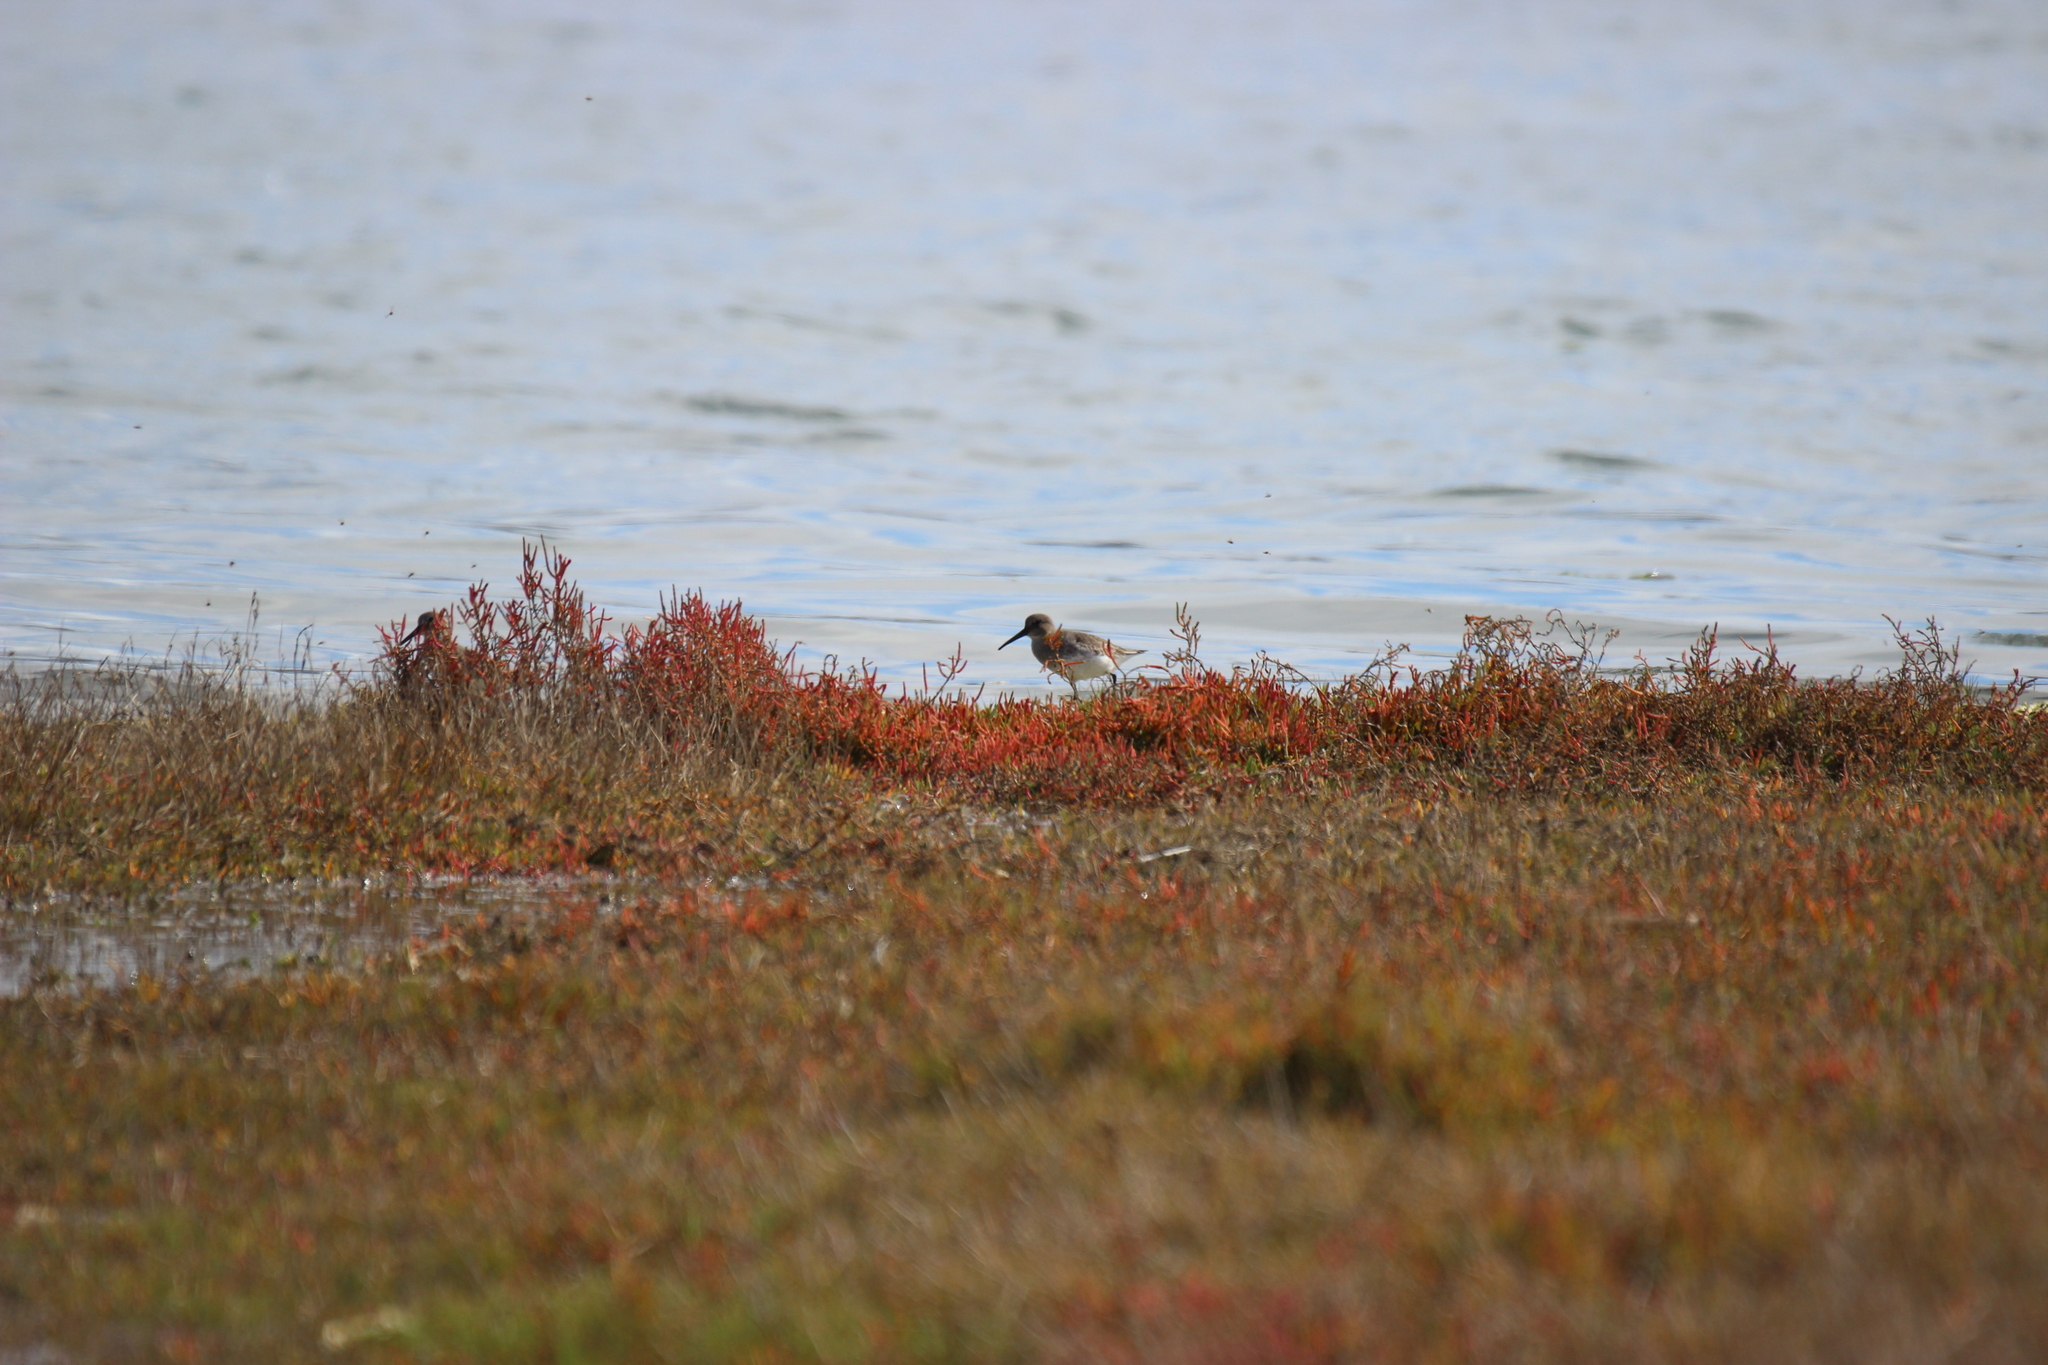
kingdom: Animalia
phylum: Chordata
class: Aves
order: Charadriiformes
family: Scolopacidae
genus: Calidris
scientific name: Calidris alpina
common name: Dunlin
